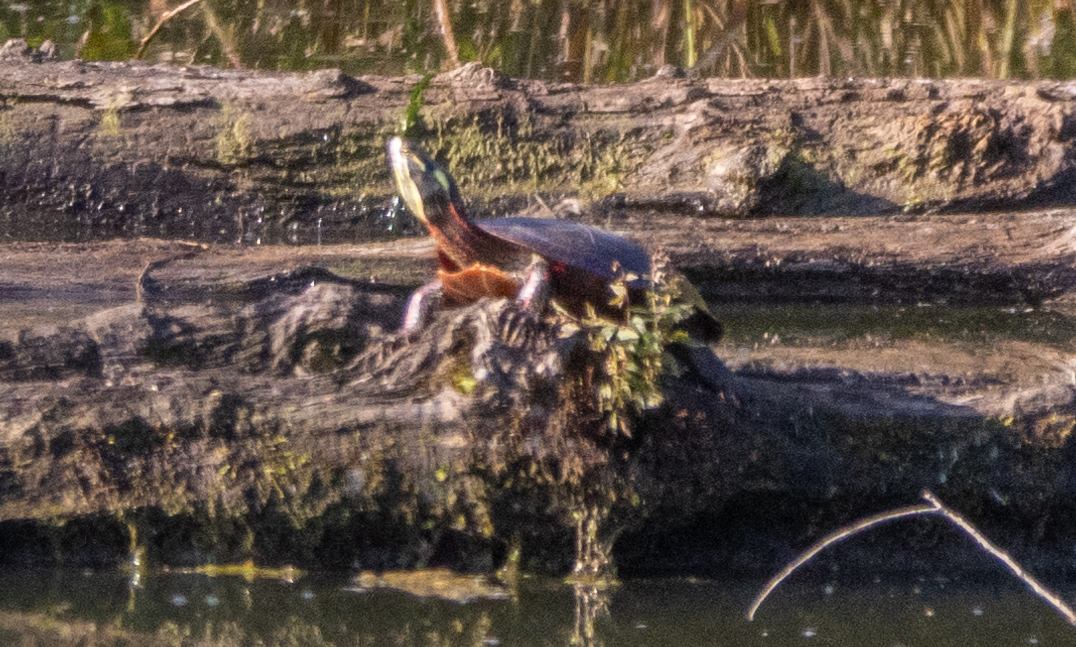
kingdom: Animalia
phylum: Chordata
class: Testudines
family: Emydidae
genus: Chrysemys
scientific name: Chrysemys picta
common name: Painted turtle
